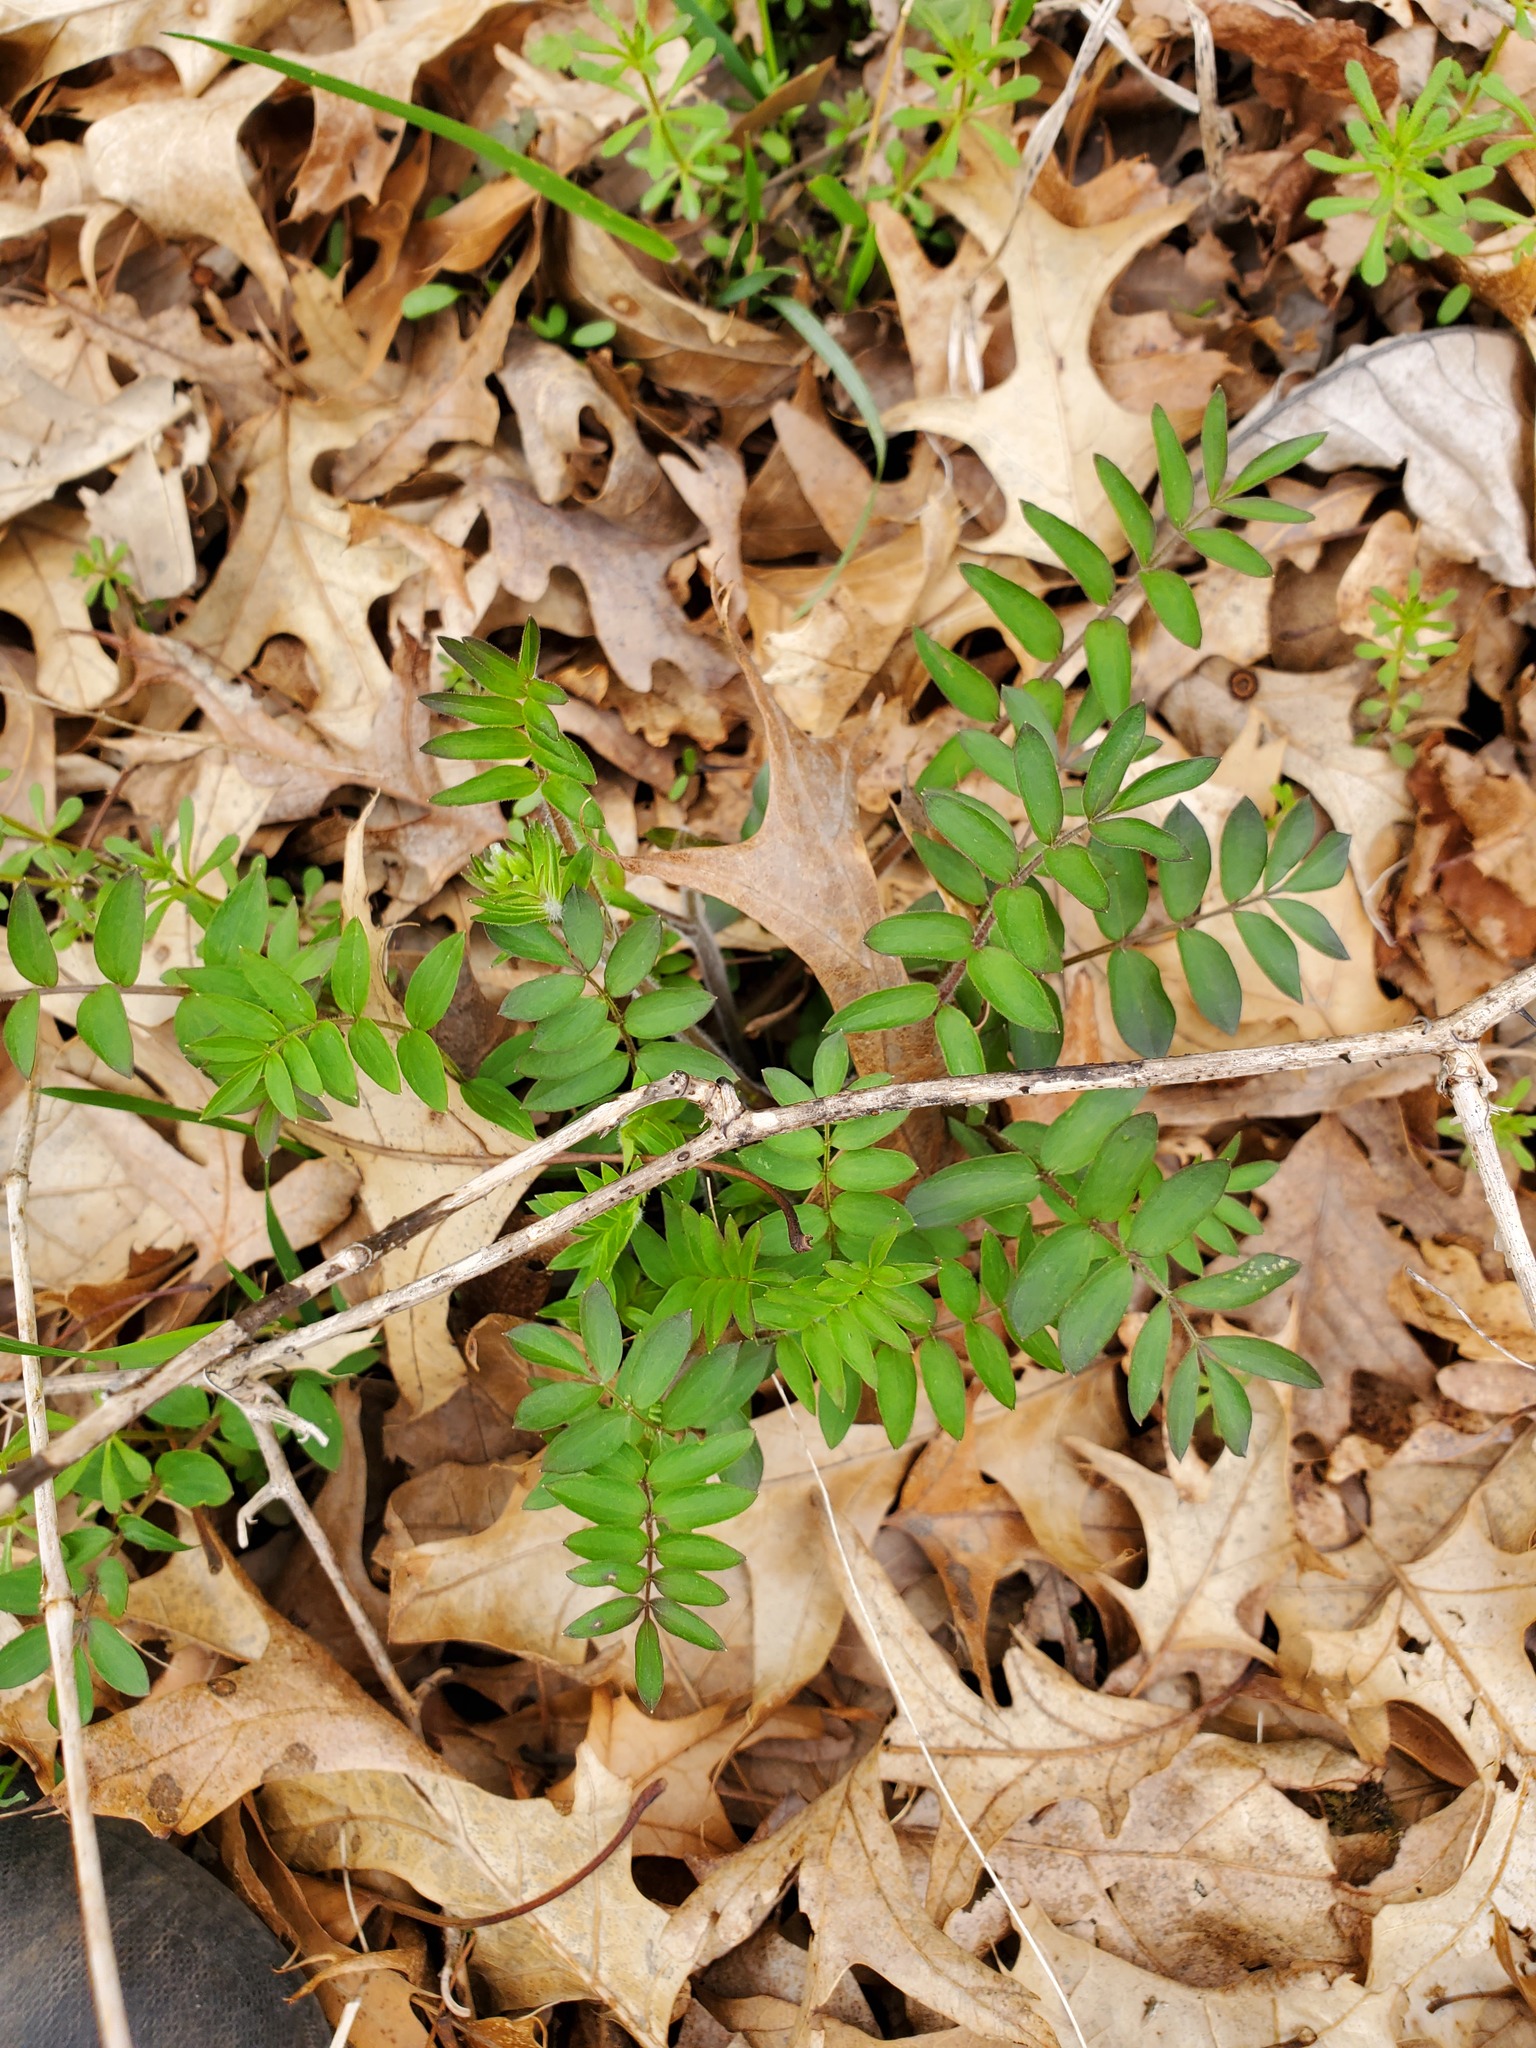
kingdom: Plantae
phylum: Tracheophyta
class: Magnoliopsida
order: Ericales
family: Polemoniaceae
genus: Polemonium
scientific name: Polemonium reptans
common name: Creeping jacob's-ladder
